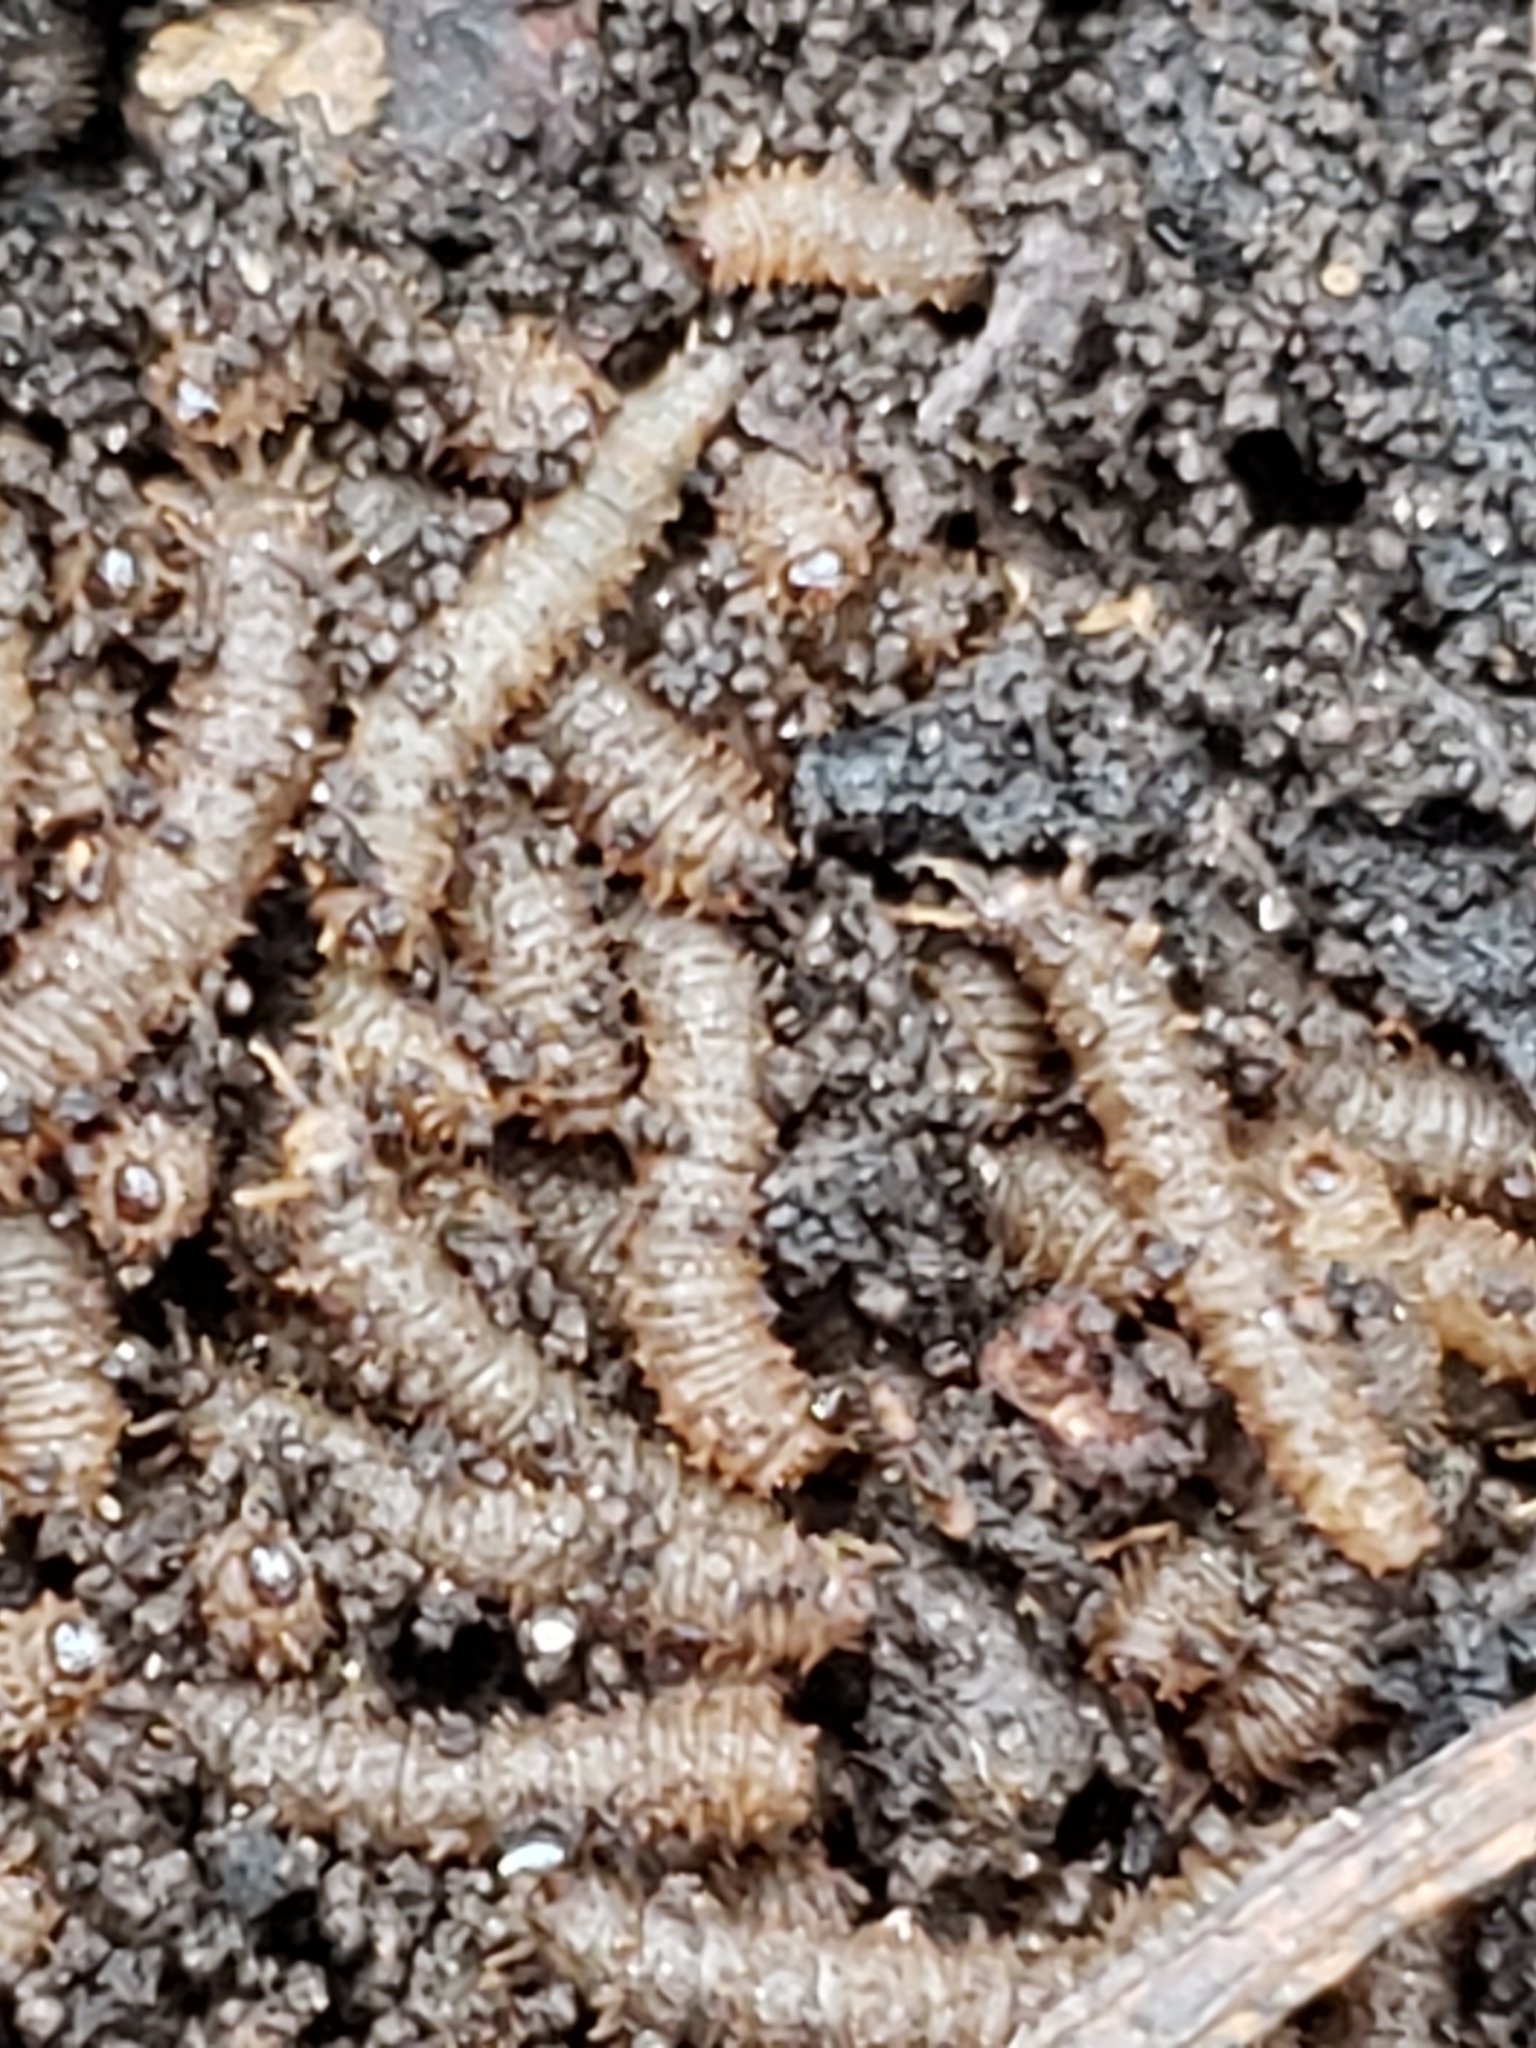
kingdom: Animalia
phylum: Arthropoda
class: Insecta
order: Diptera
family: Bibionidae
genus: Bibio
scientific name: Bibio
